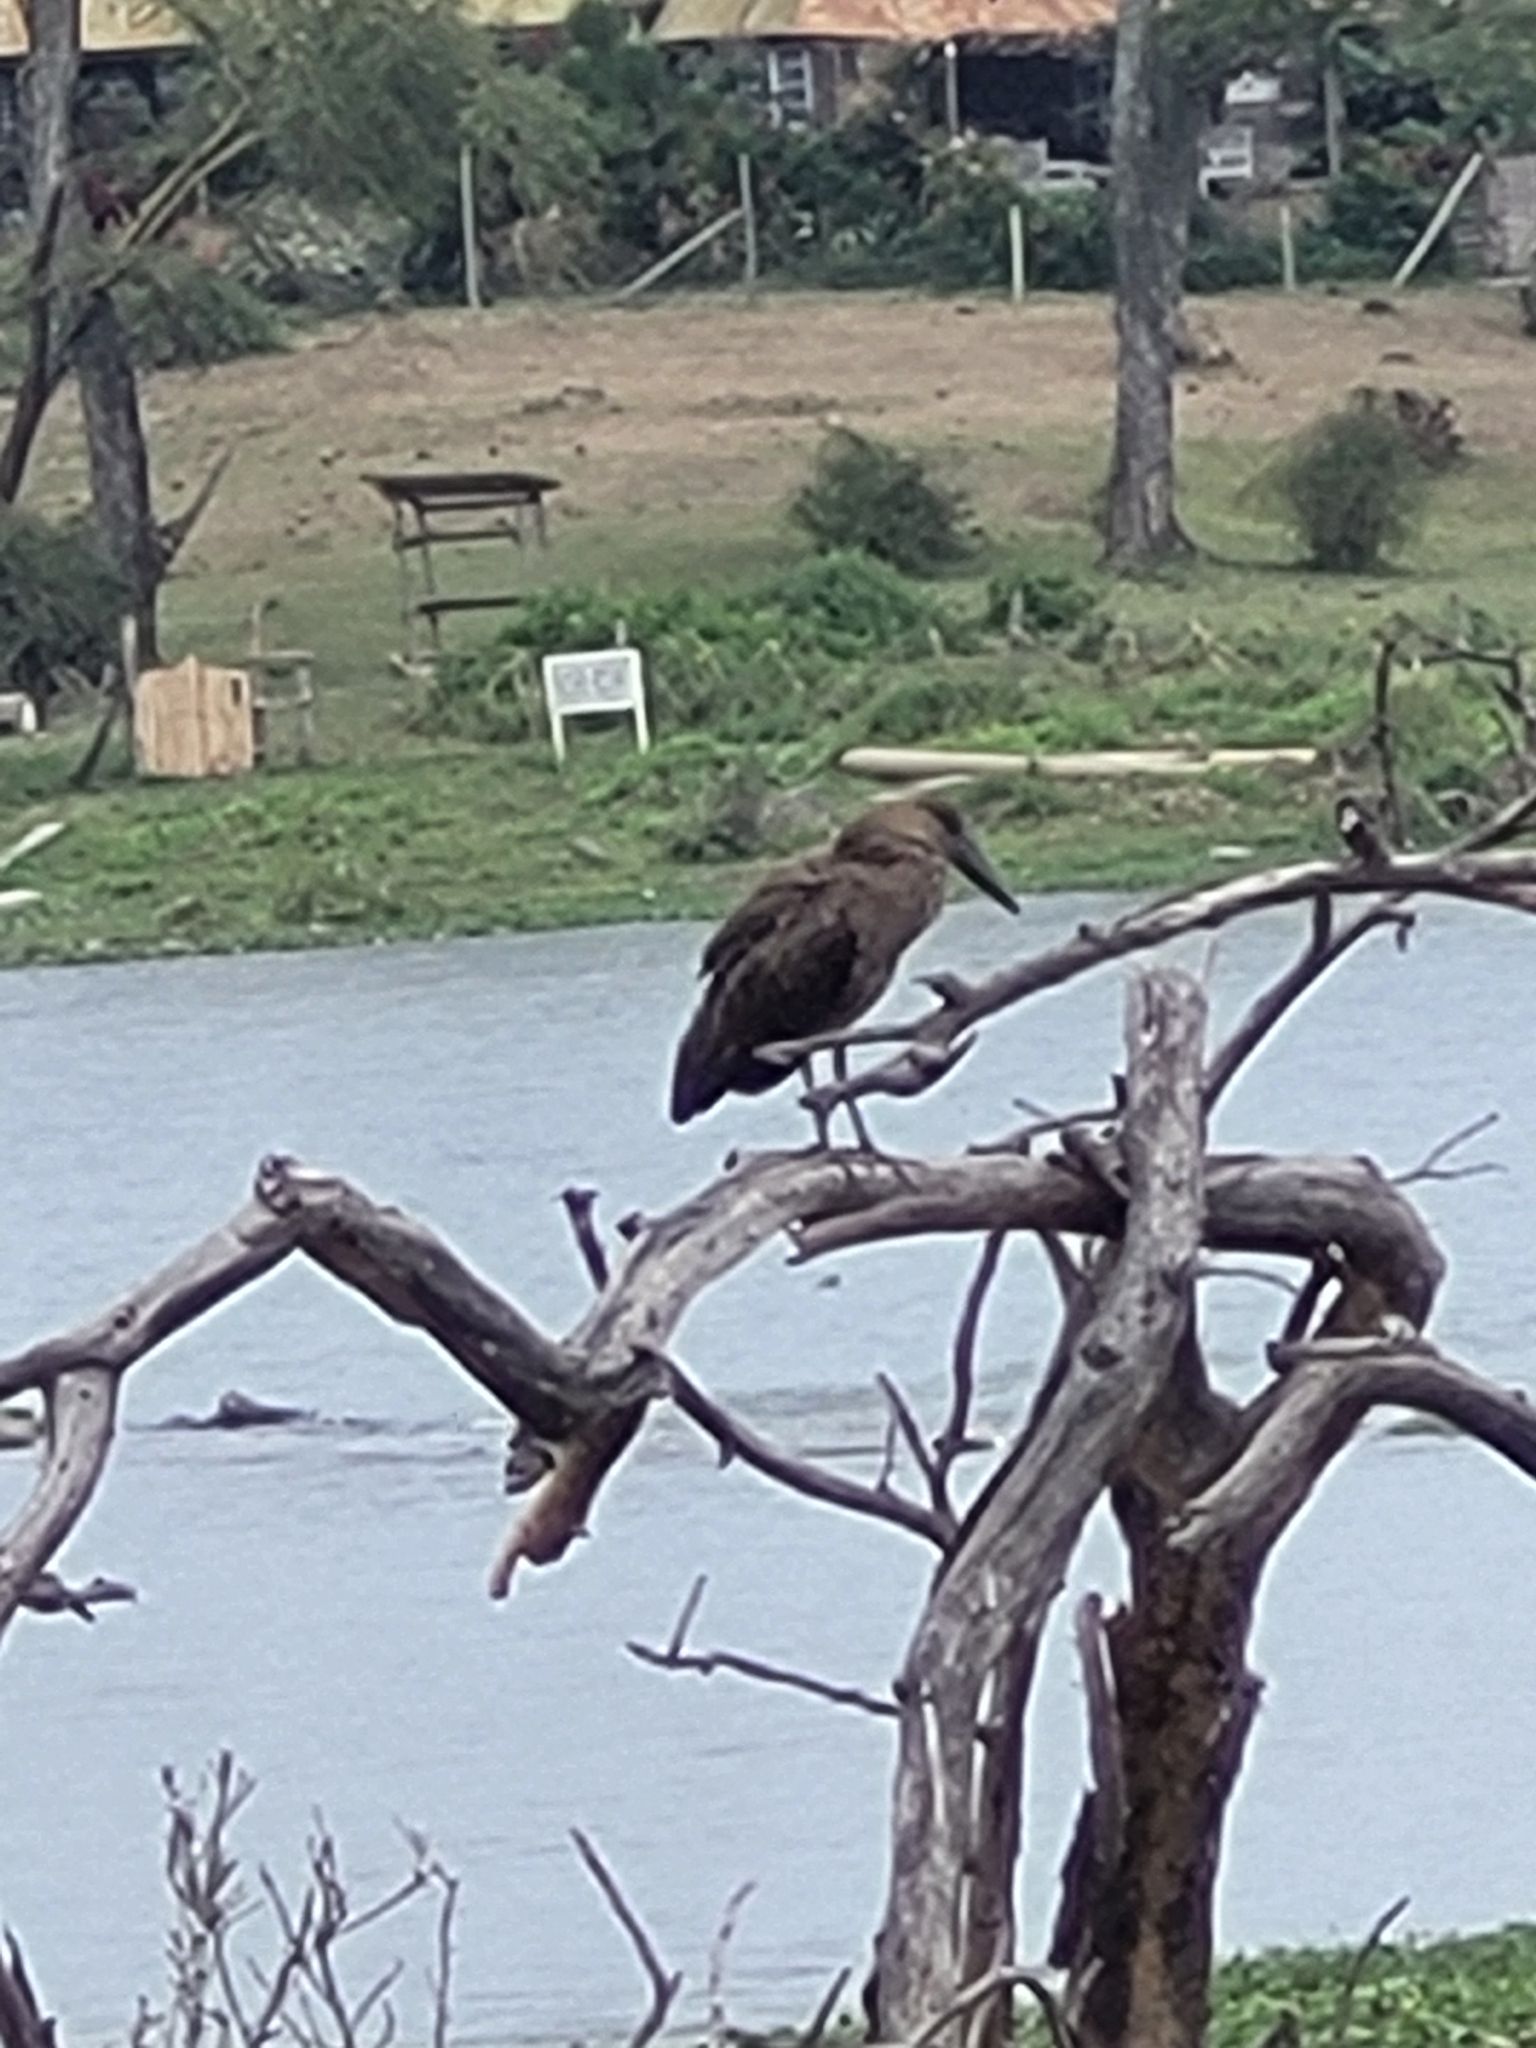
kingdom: Animalia
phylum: Chordata
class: Aves
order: Pelecaniformes
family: Scopidae
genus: Scopus
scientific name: Scopus umbretta
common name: Hamerkop
